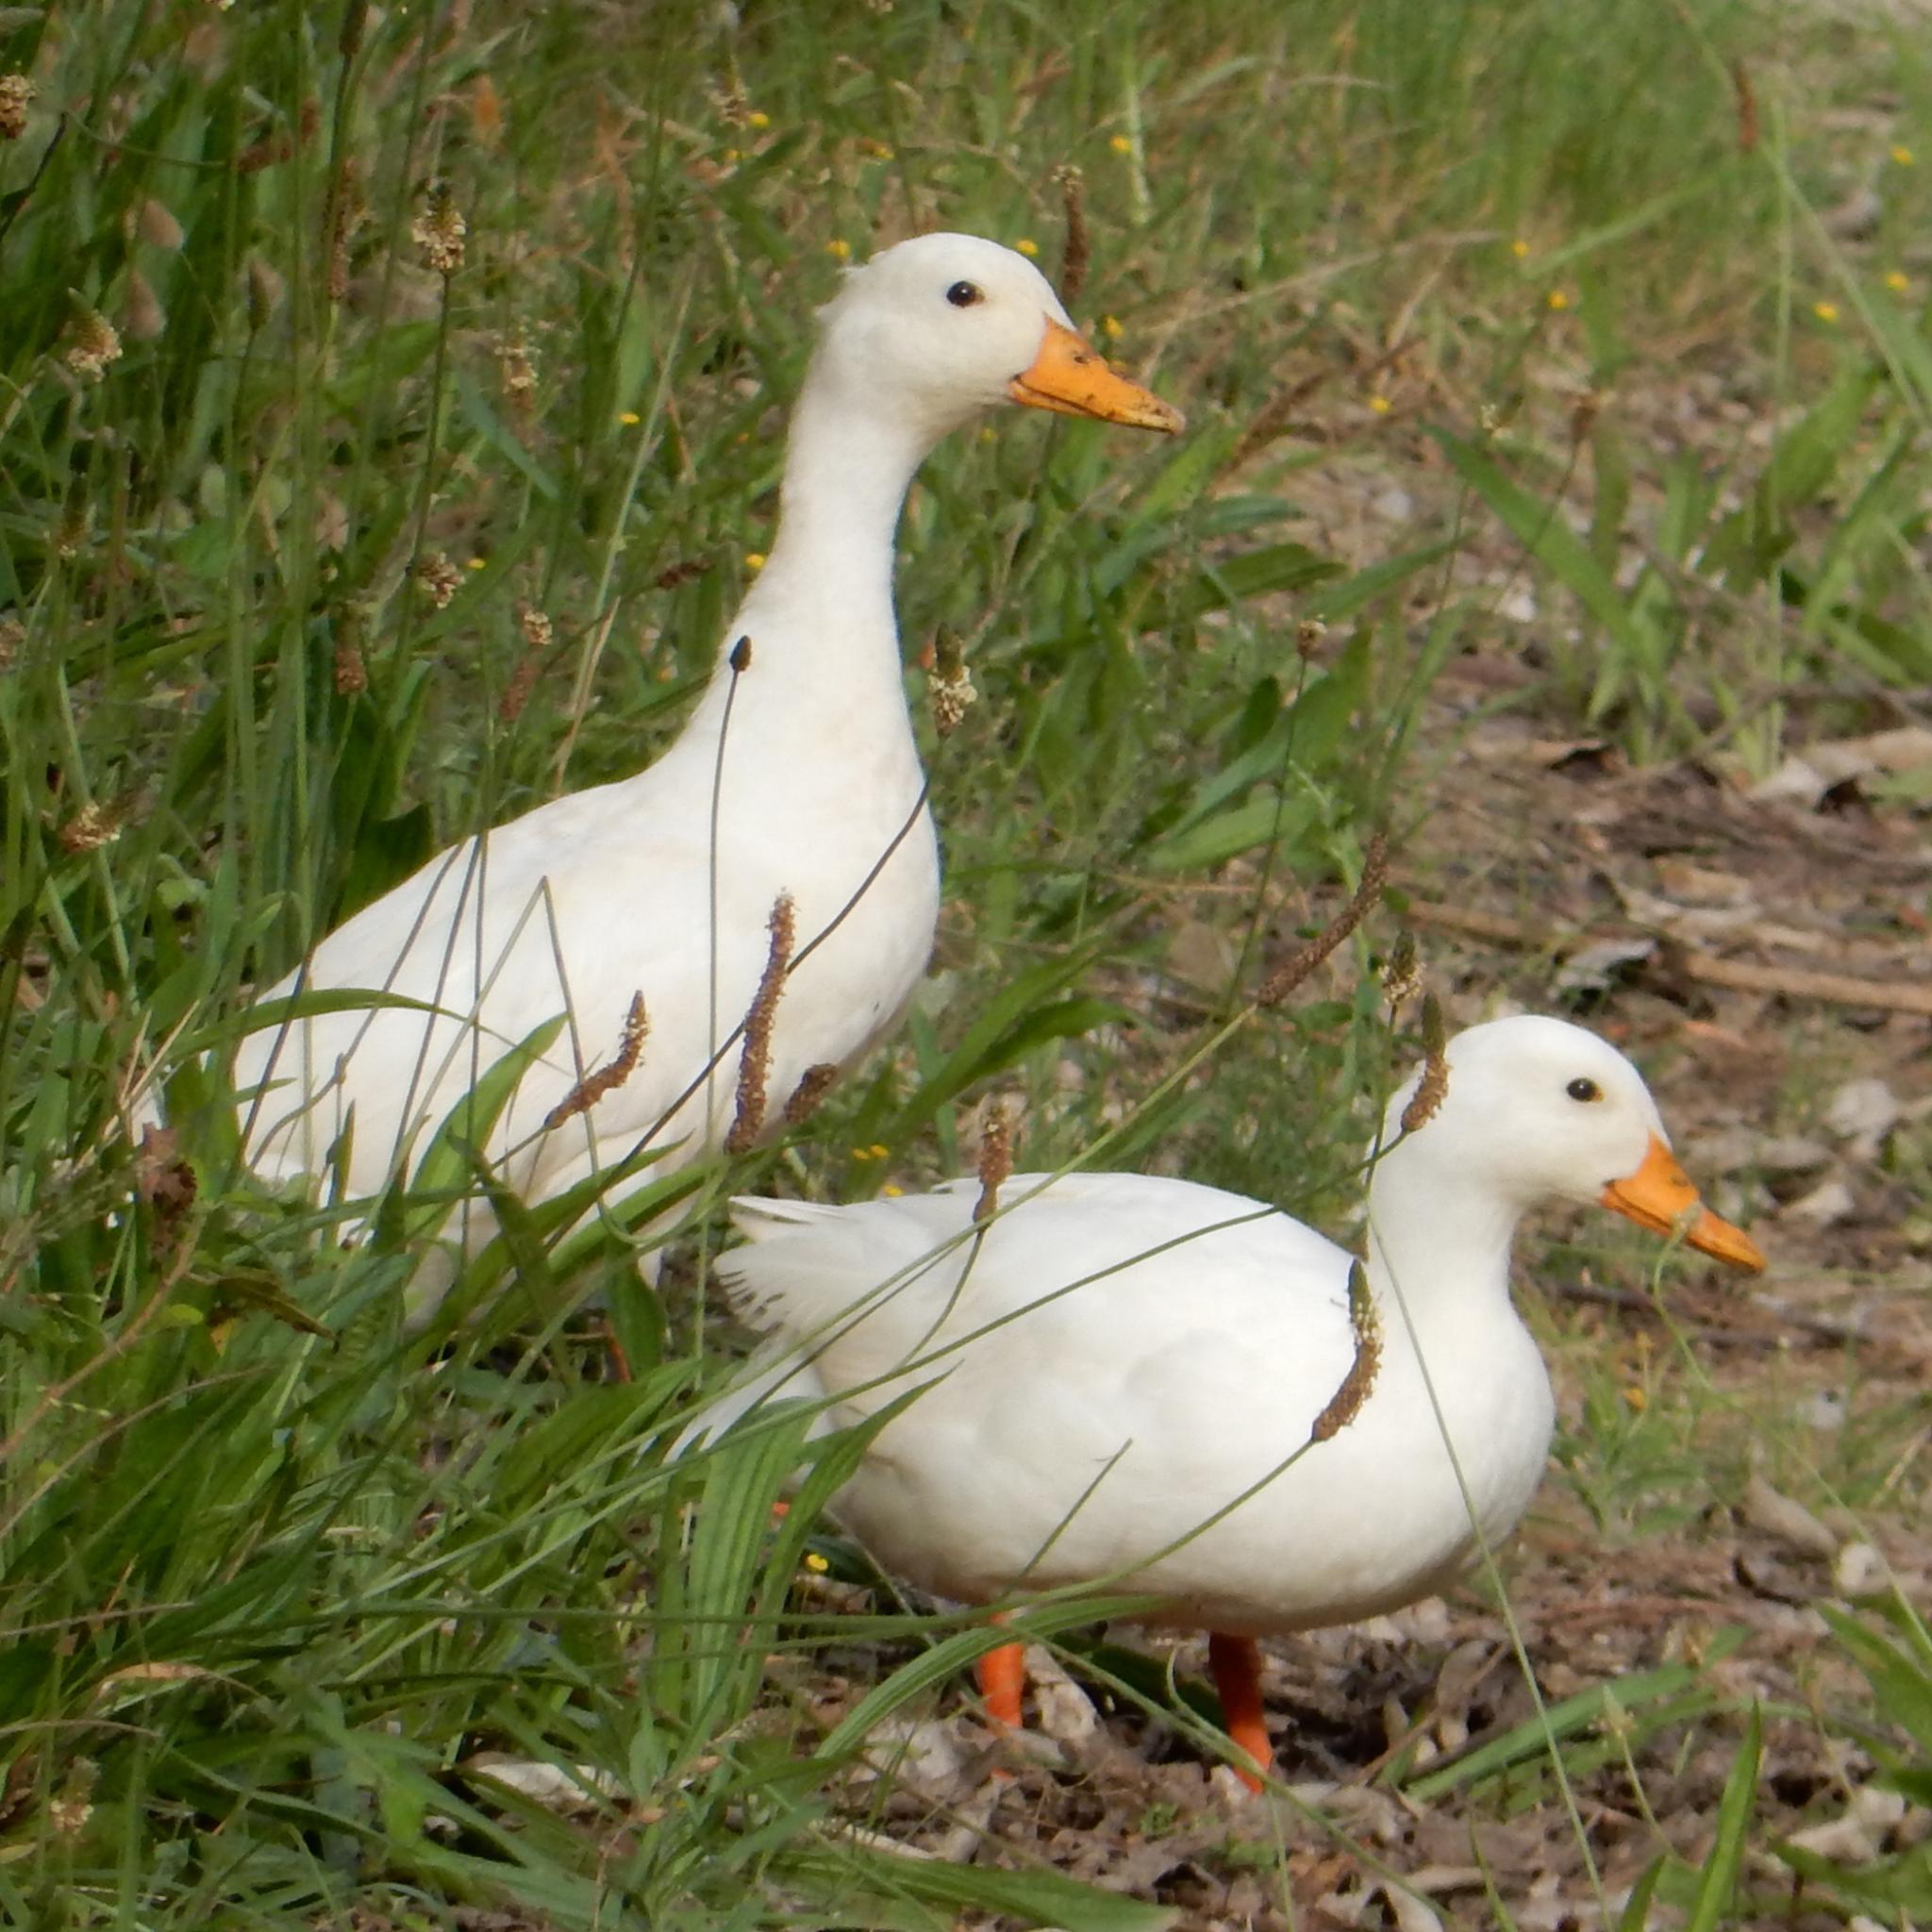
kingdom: Animalia
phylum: Chordata
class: Aves
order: Anseriformes
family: Anatidae
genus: Anas
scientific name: Anas platyrhynchos
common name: Mallard
